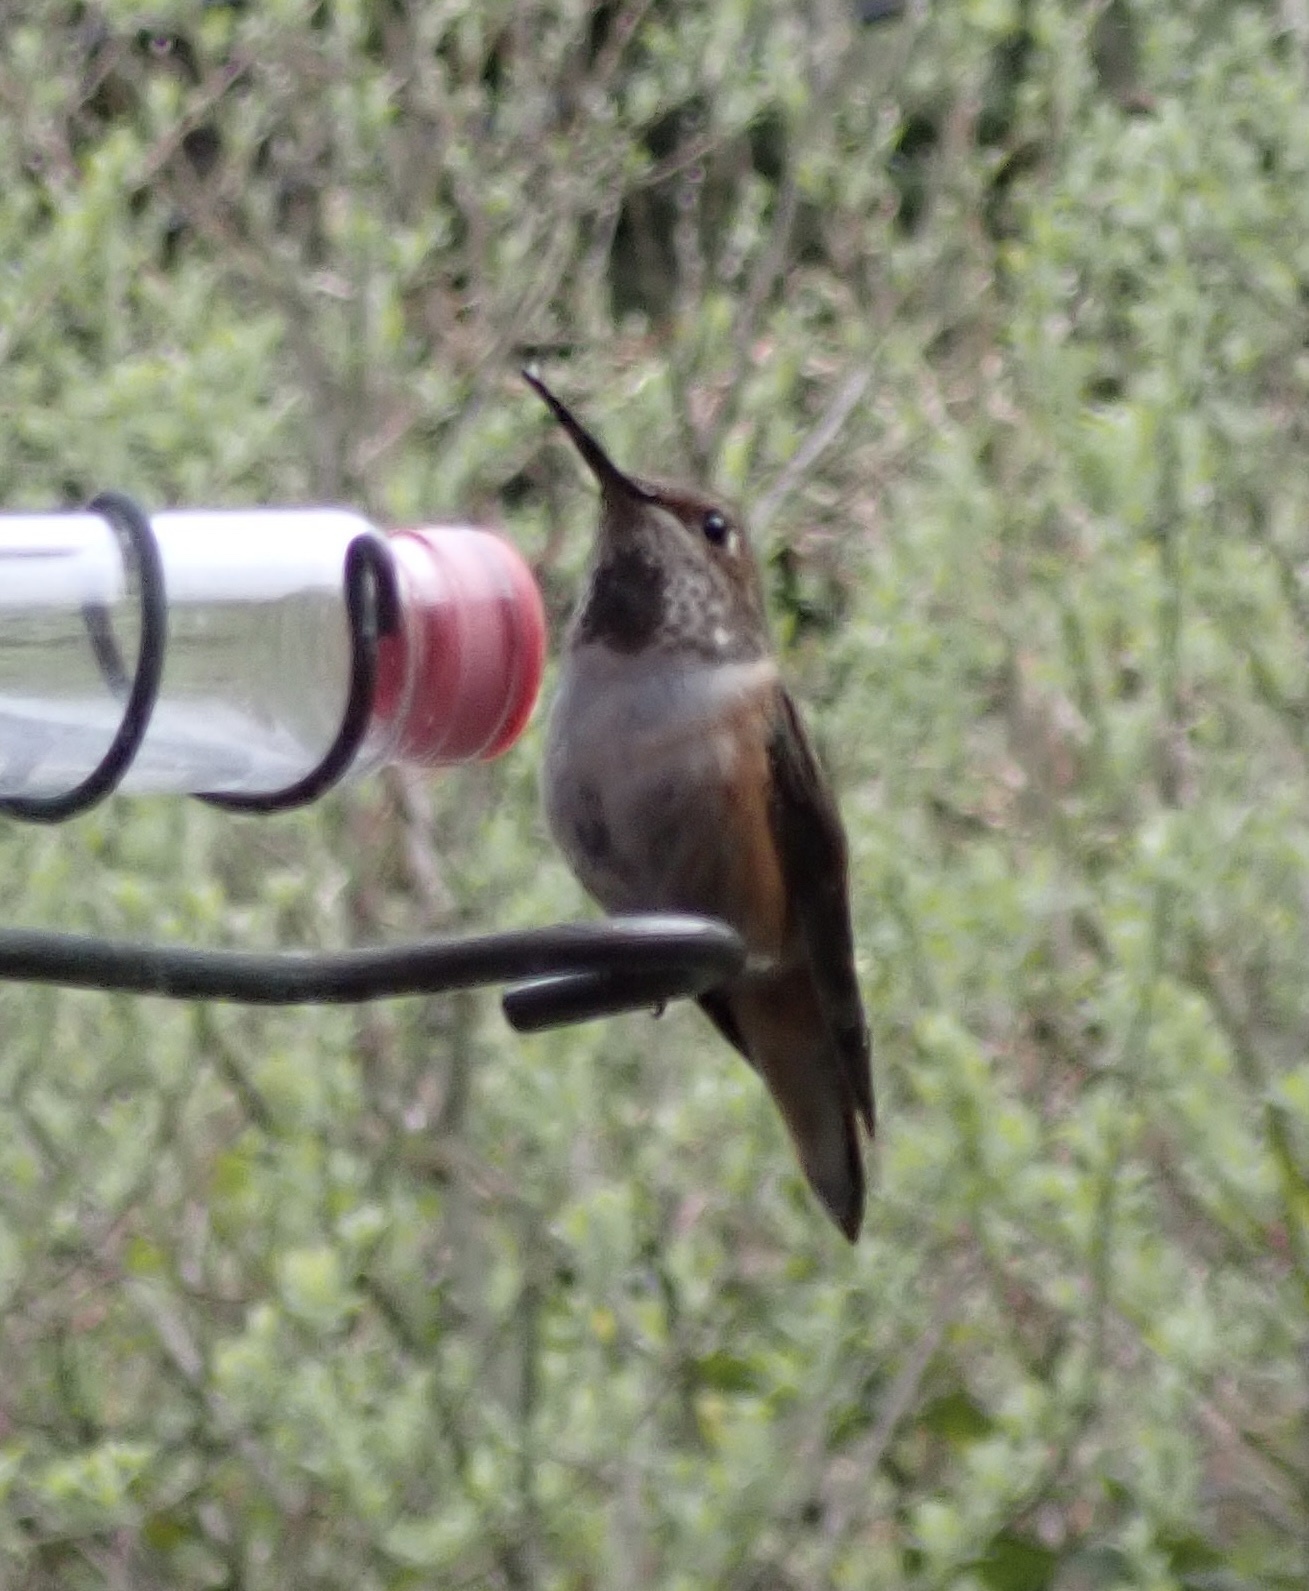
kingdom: Animalia
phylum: Chordata
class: Aves
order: Apodiformes
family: Trochilidae
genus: Selasphorus
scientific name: Selasphorus sasin
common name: Allen's hummingbird
